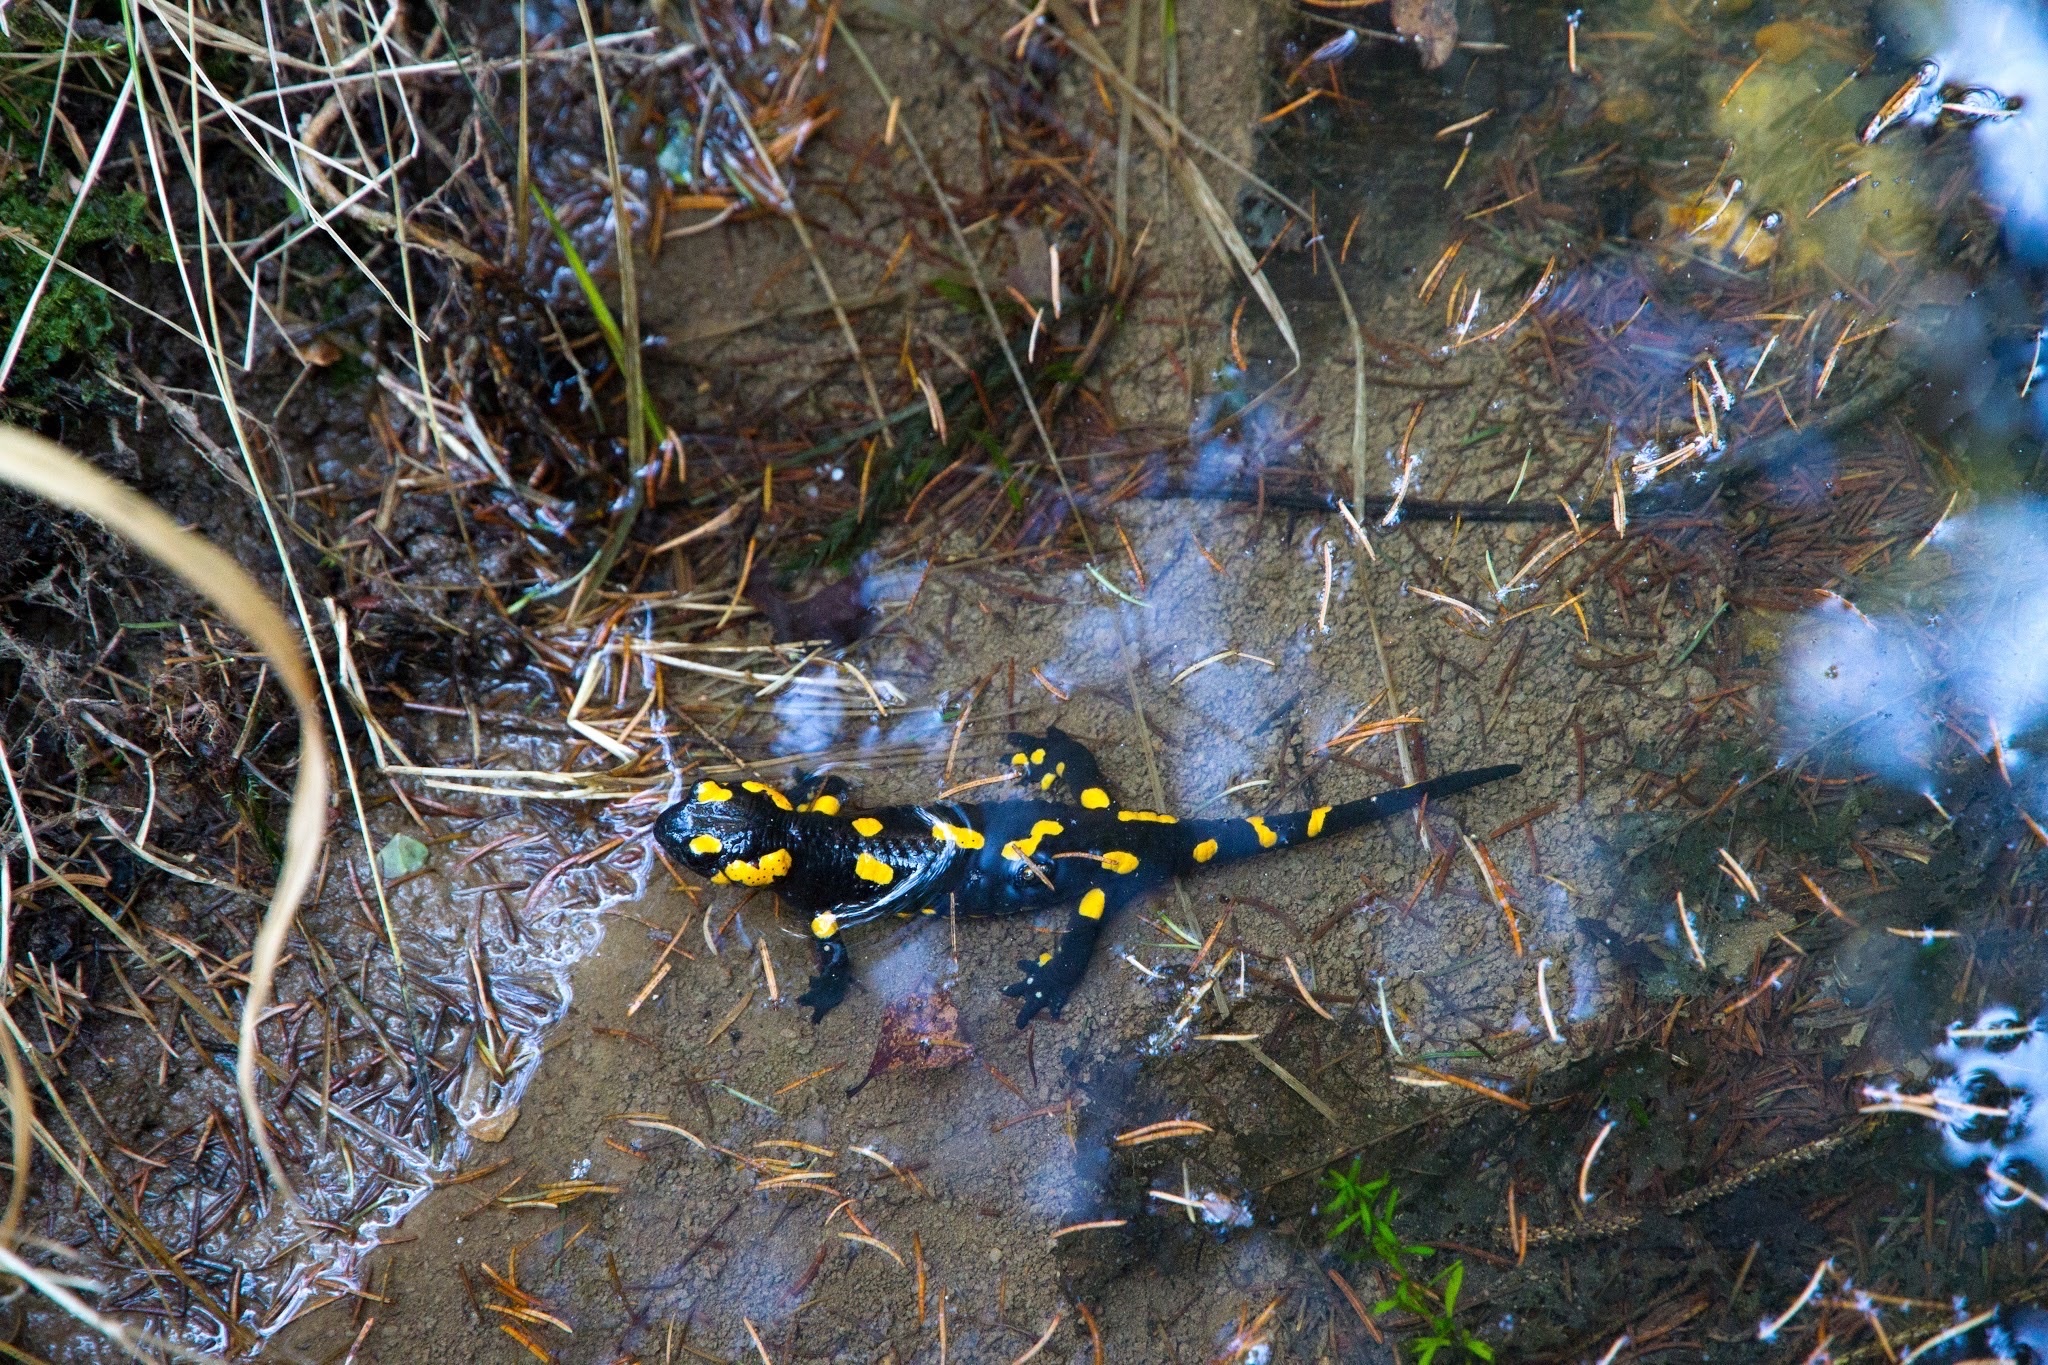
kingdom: Animalia
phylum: Chordata
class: Amphibia
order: Caudata
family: Salamandridae
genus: Salamandra
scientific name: Salamandra salamandra
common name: Fire salamander
